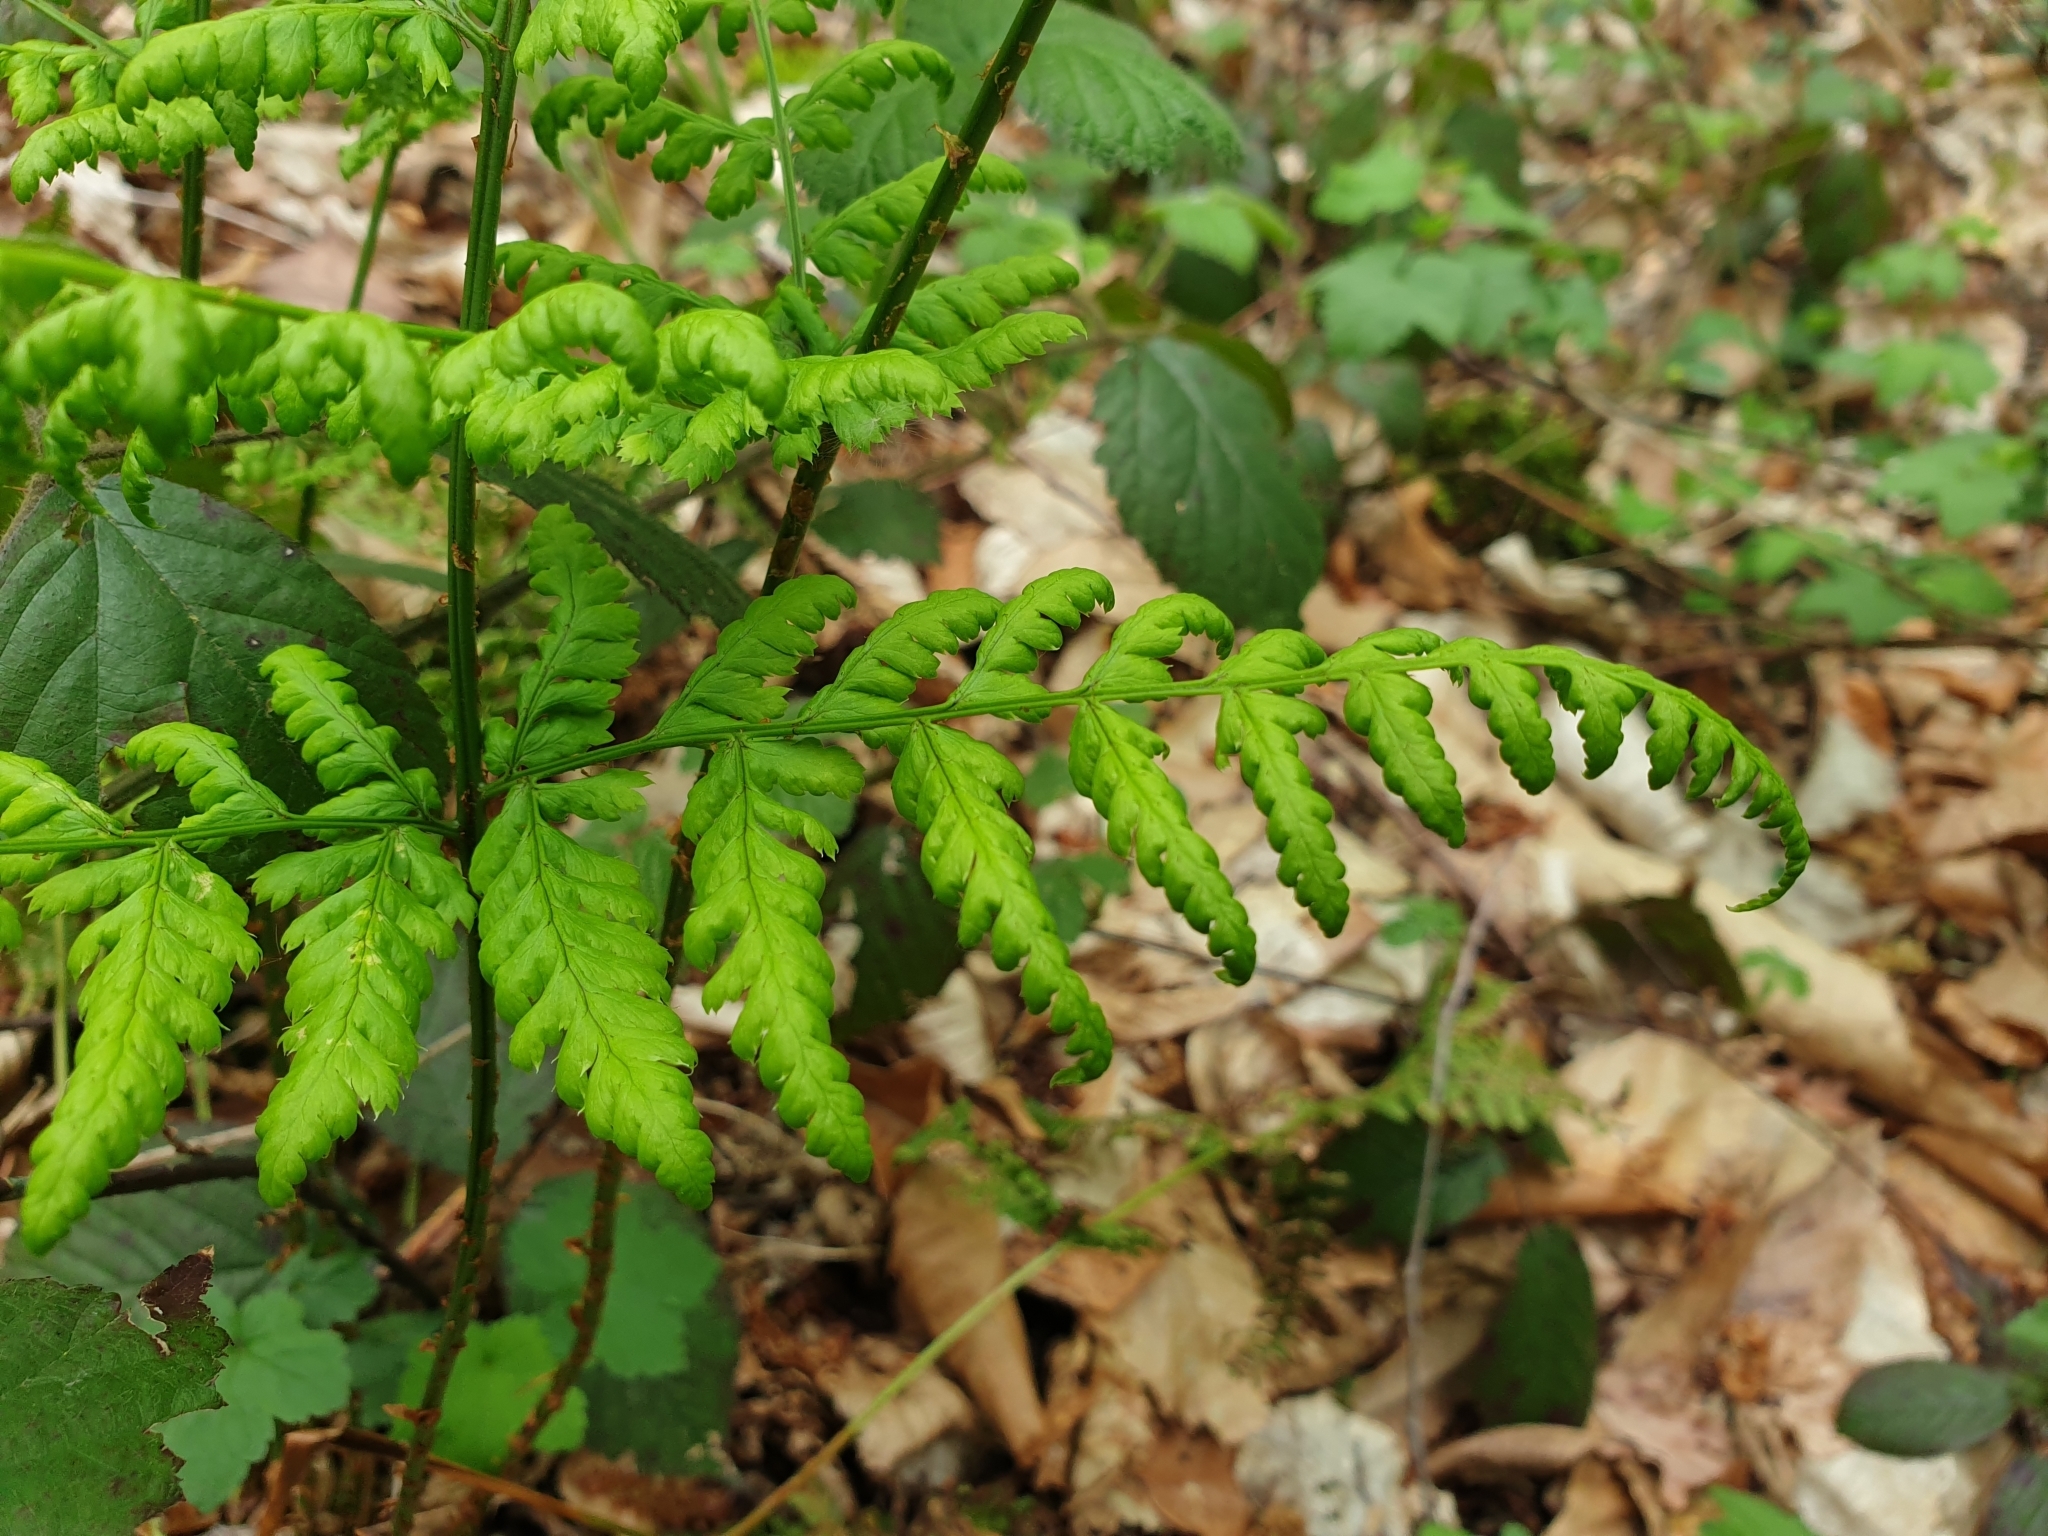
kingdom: Plantae
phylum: Tracheophyta
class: Polypodiopsida
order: Polypodiales
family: Dryopteridaceae
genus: Dryopteris
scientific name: Dryopteris dilatata
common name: Broad buckler-fern
